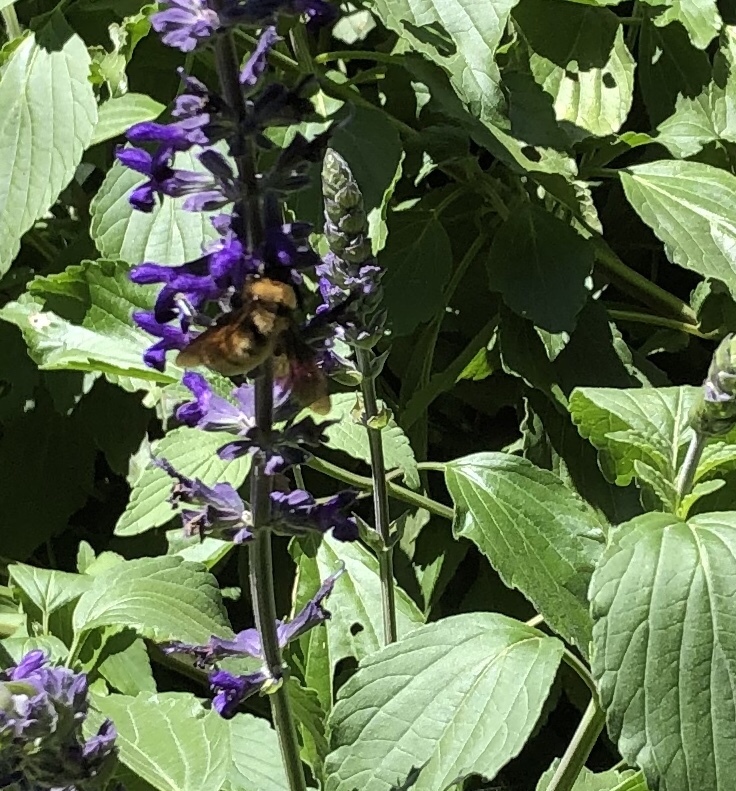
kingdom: Animalia
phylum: Arthropoda
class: Insecta
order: Hymenoptera
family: Apidae
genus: Bombus
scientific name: Bombus sonorus
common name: Sonoran bumble bee
